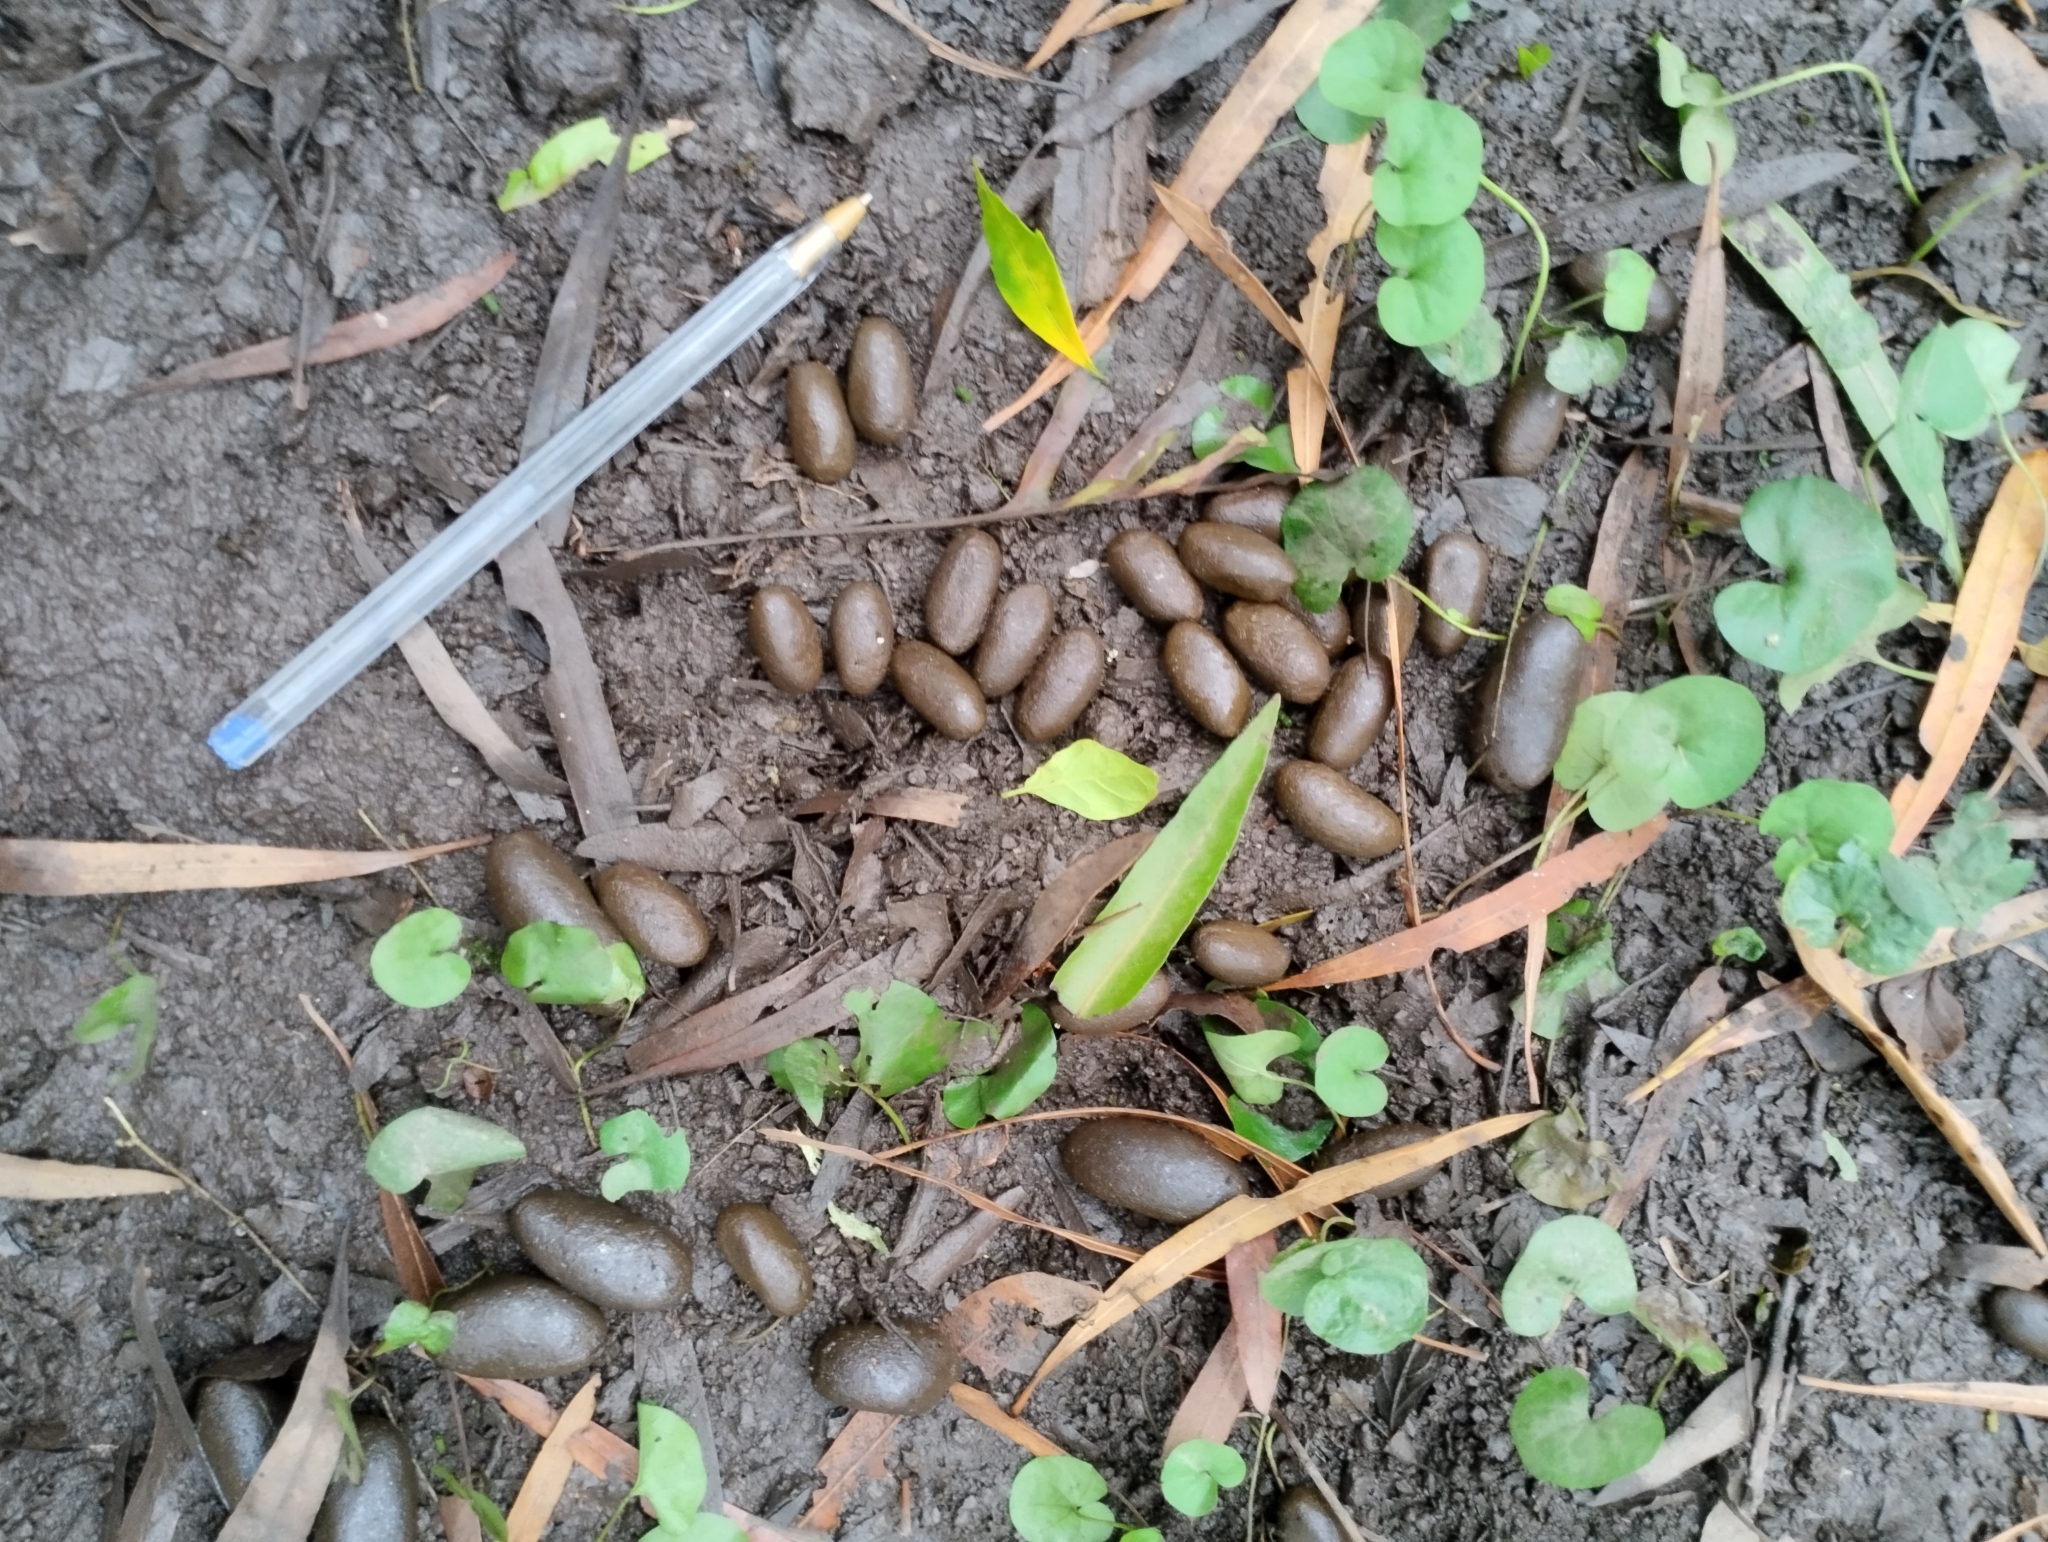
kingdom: Animalia
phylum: Chordata
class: Mammalia
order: Rodentia
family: Caviidae
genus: Hydrochoerus
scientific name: Hydrochoerus hydrochaeris
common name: Capybara
